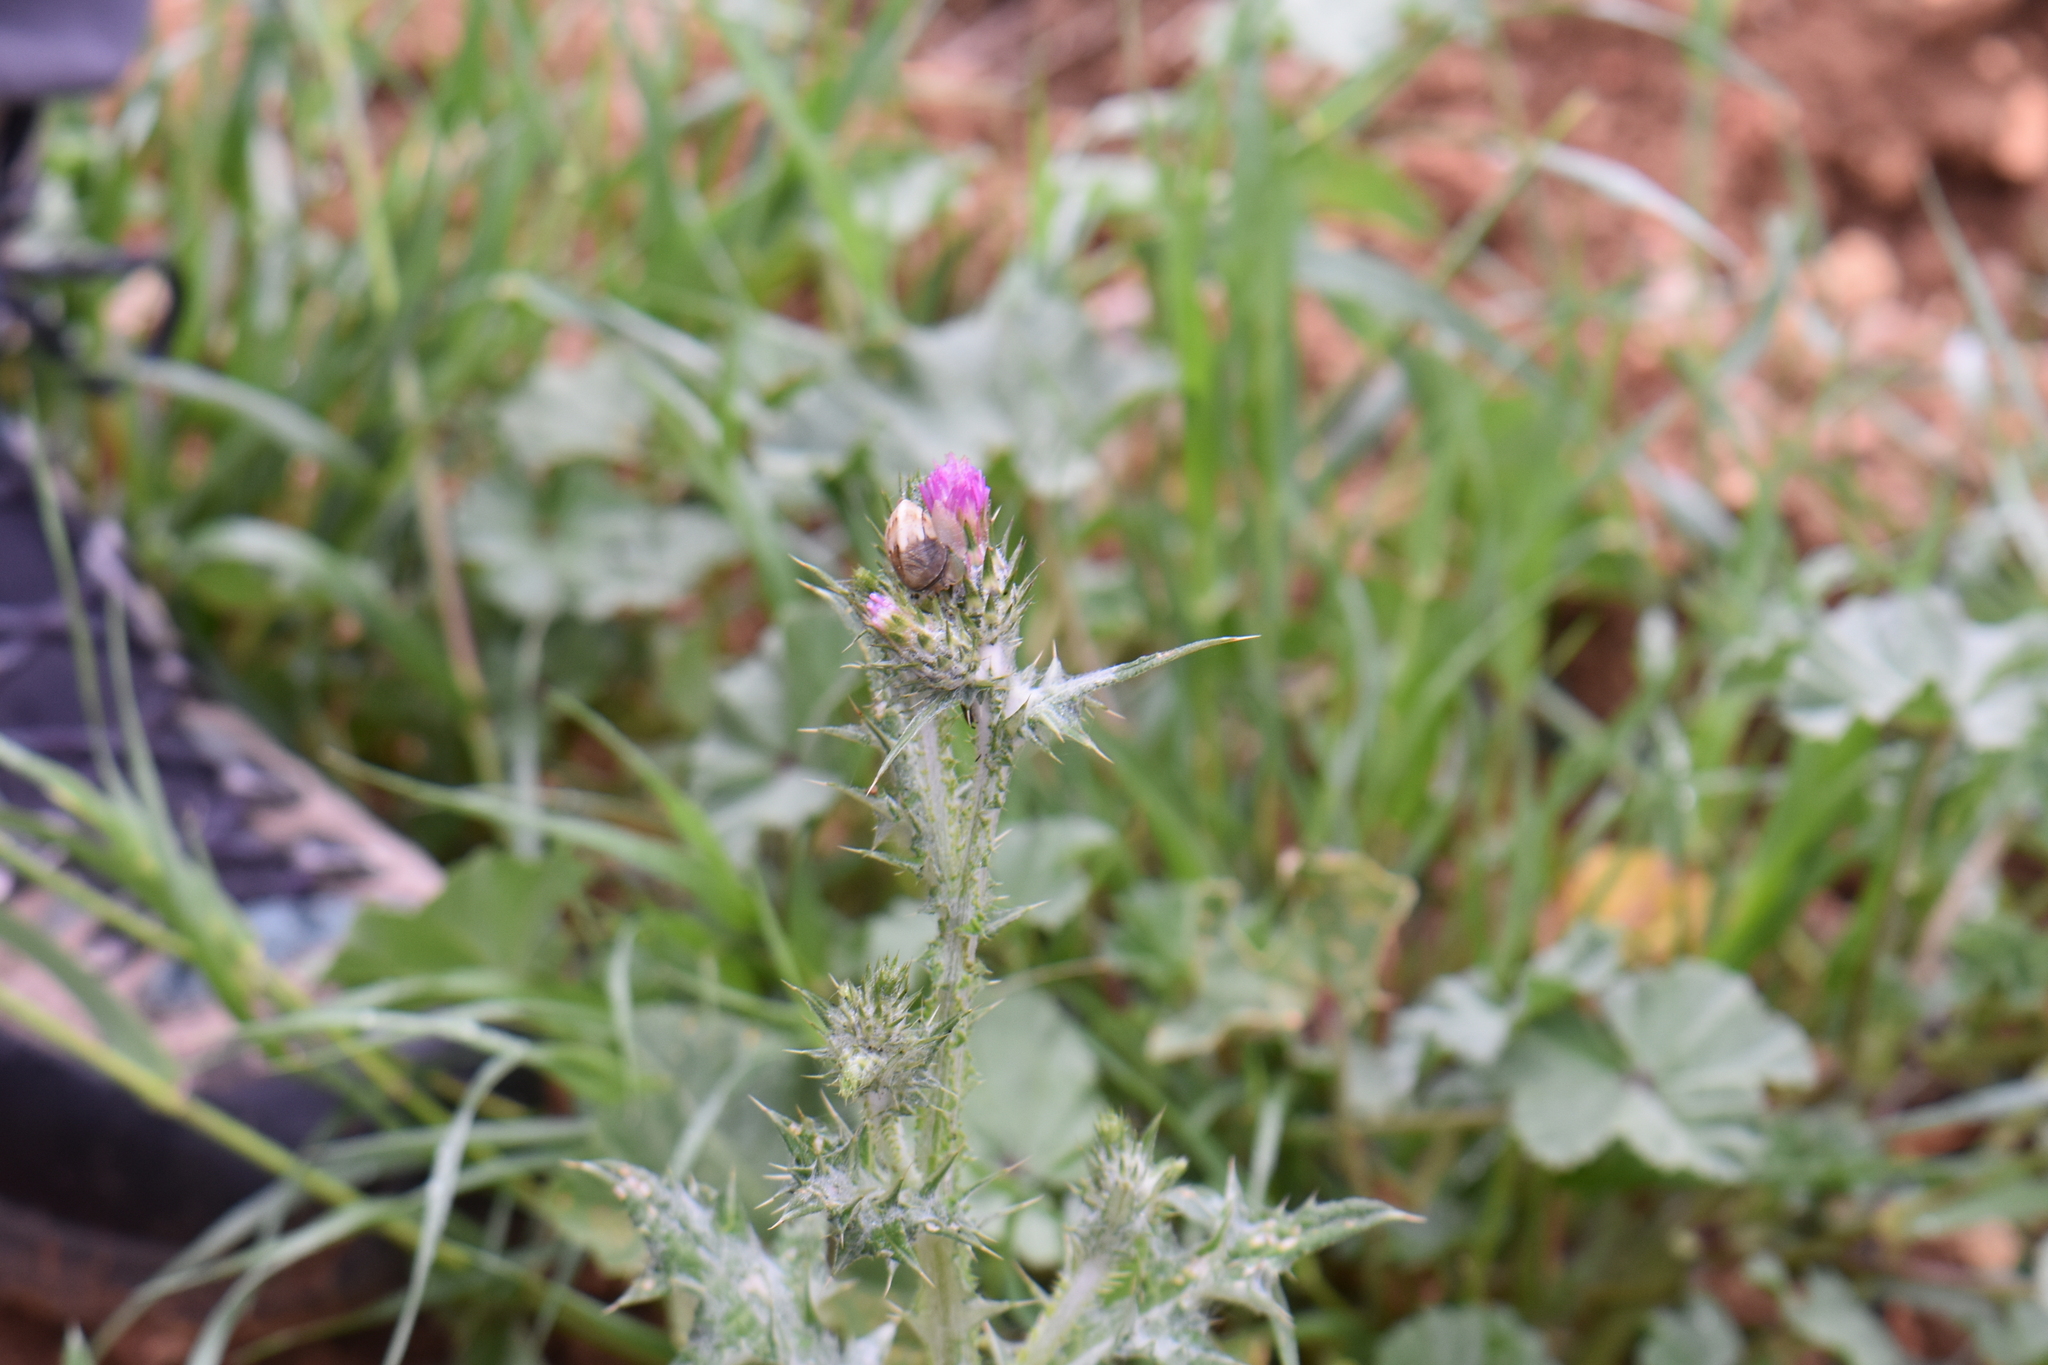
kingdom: Plantae
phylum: Tracheophyta
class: Magnoliopsida
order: Asterales
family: Asteraceae
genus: Carduus
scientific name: Carduus pycnocephalus
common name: Plymouth thistle
